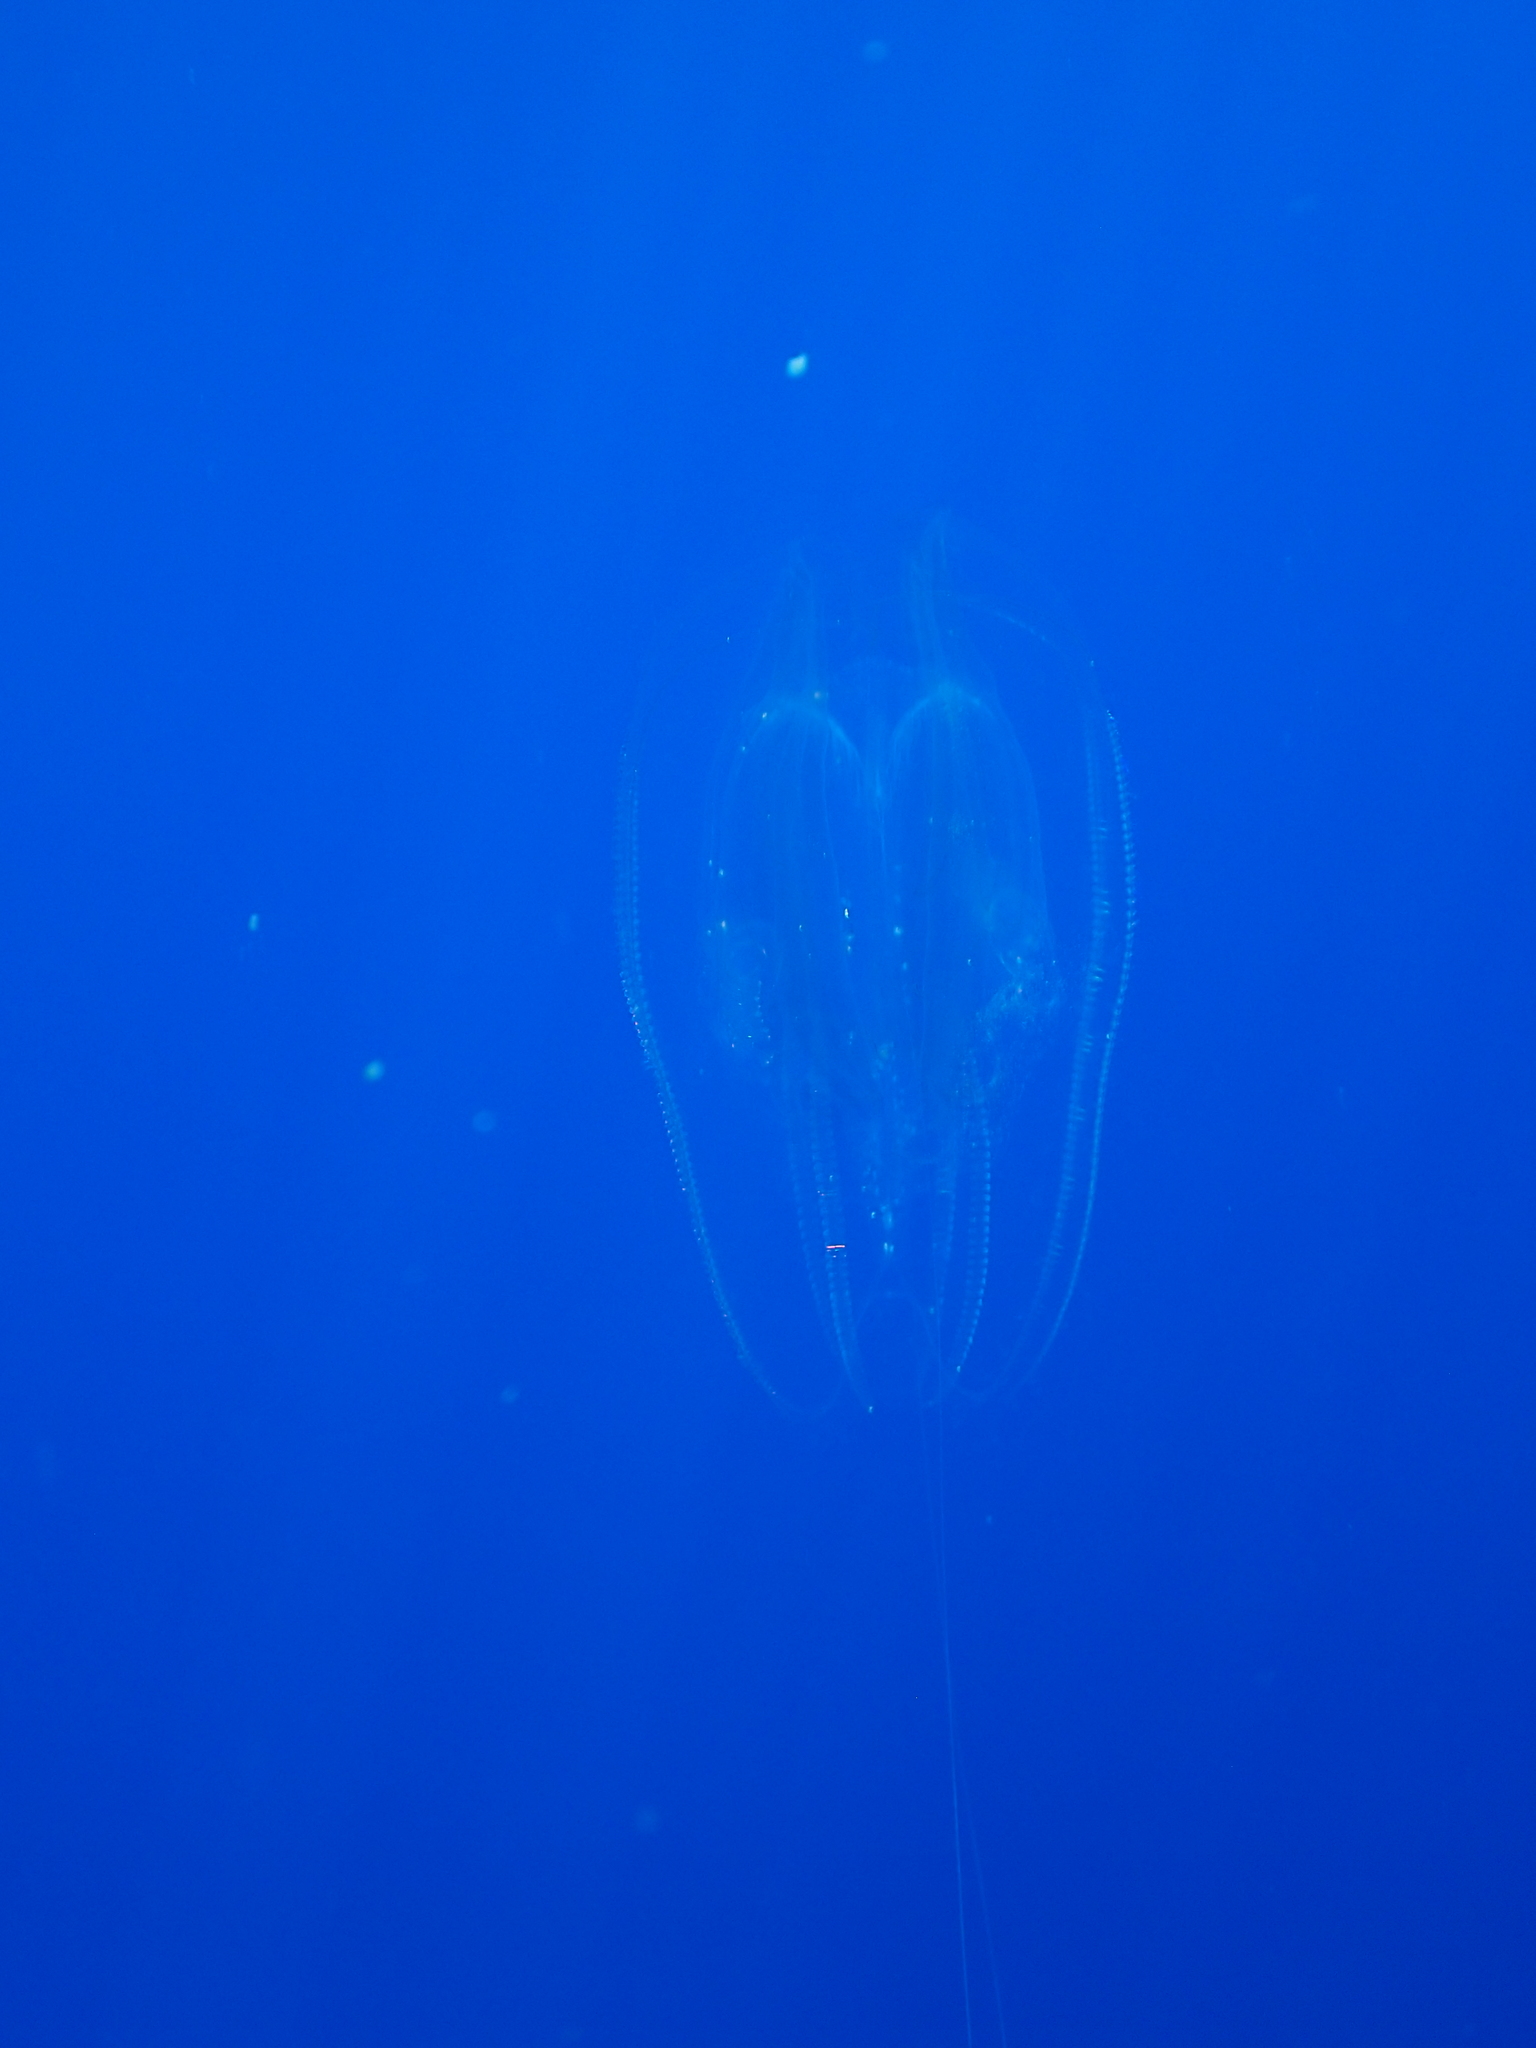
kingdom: Animalia
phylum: Ctenophora
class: Tentaculata
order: Lobata
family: Leucotheidae
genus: Leucothea
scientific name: Leucothea multicornis
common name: Vitreous lobate comb-jelly
